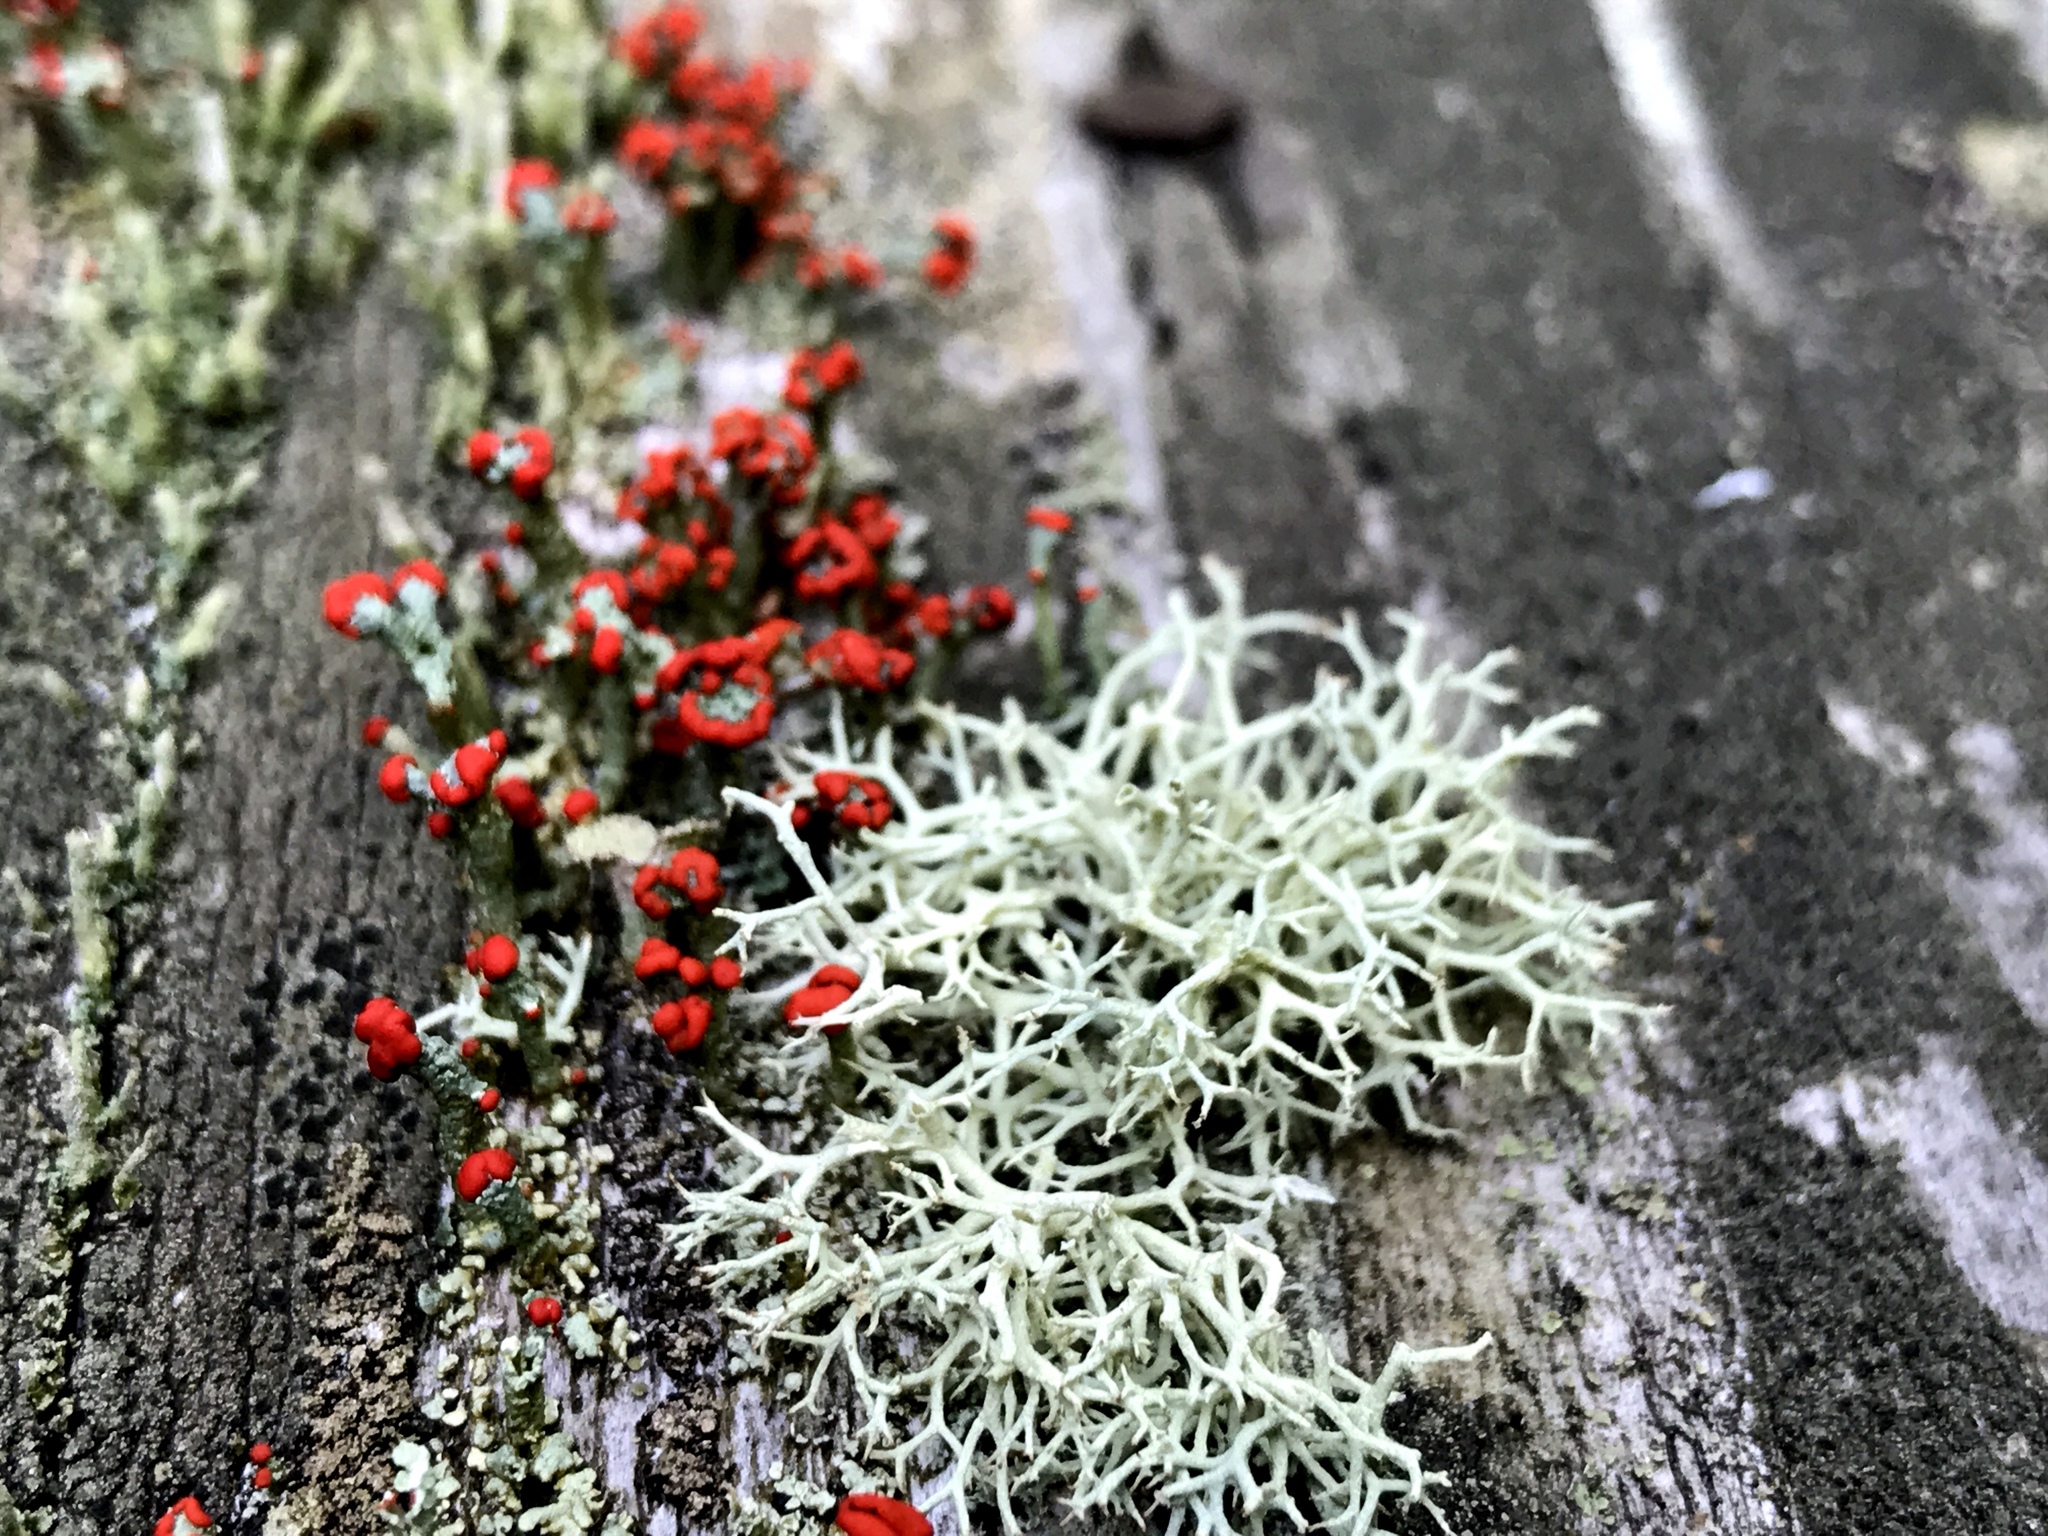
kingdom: Fungi
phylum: Ascomycota
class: Lecanoromycetes
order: Lecanorales
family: Cladoniaceae
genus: Cladonia
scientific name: Cladonia cristatella
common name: British soldier lichen
